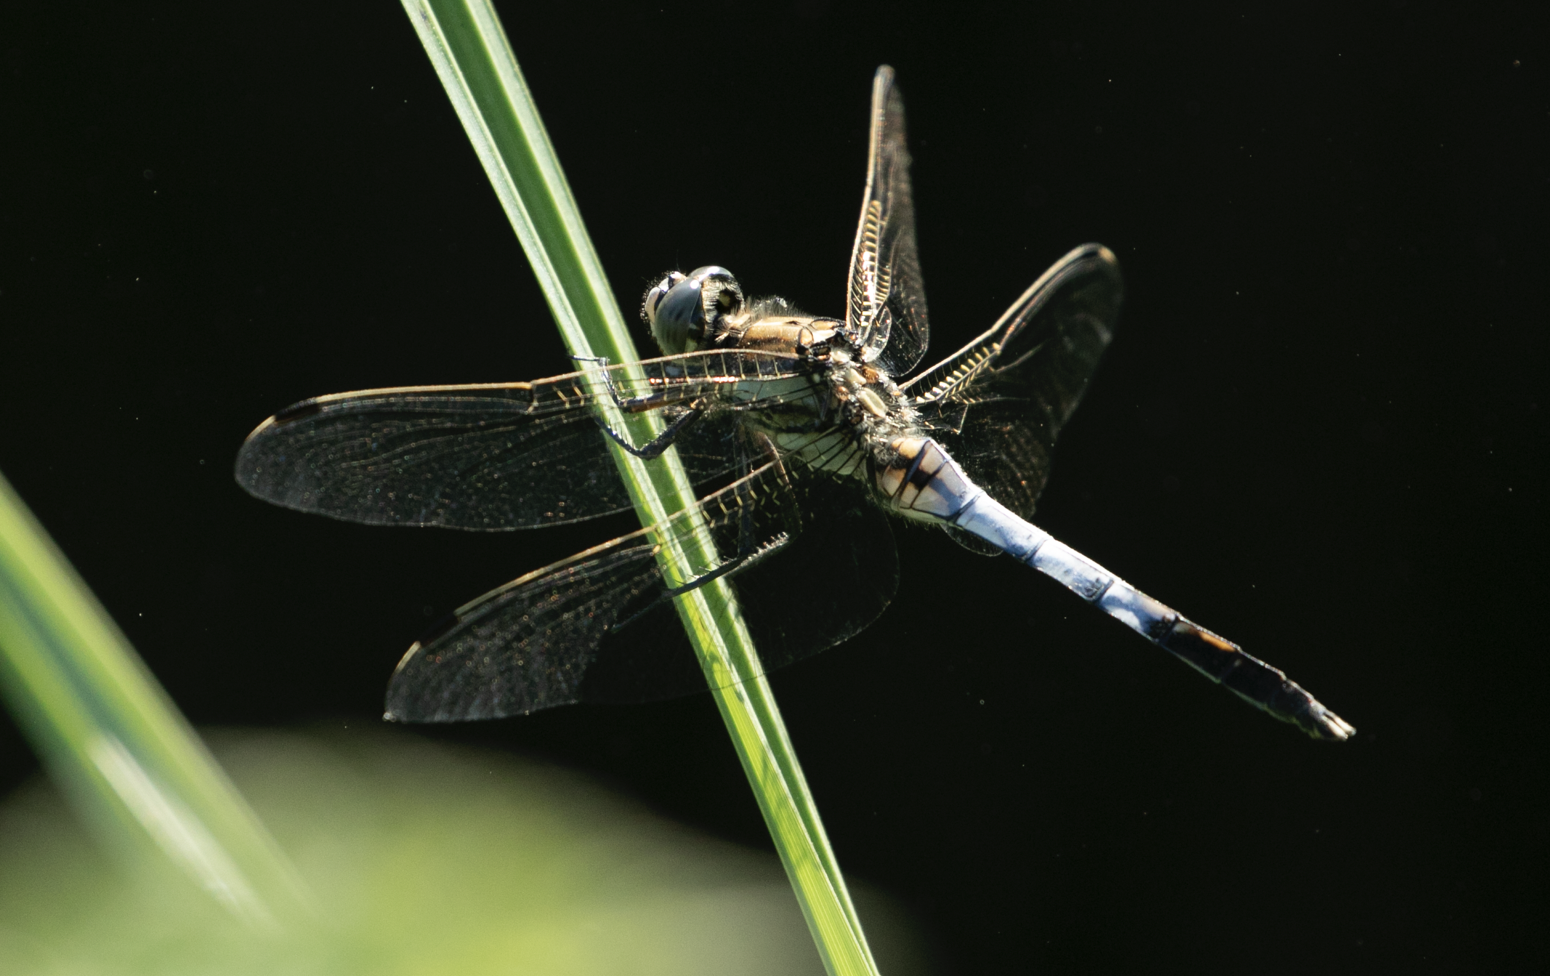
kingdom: Animalia
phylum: Arthropoda
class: Insecta
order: Odonata
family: Libellulidae
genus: Orthetrum
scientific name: Orthetrum albistylum
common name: White-tailed skimmer
